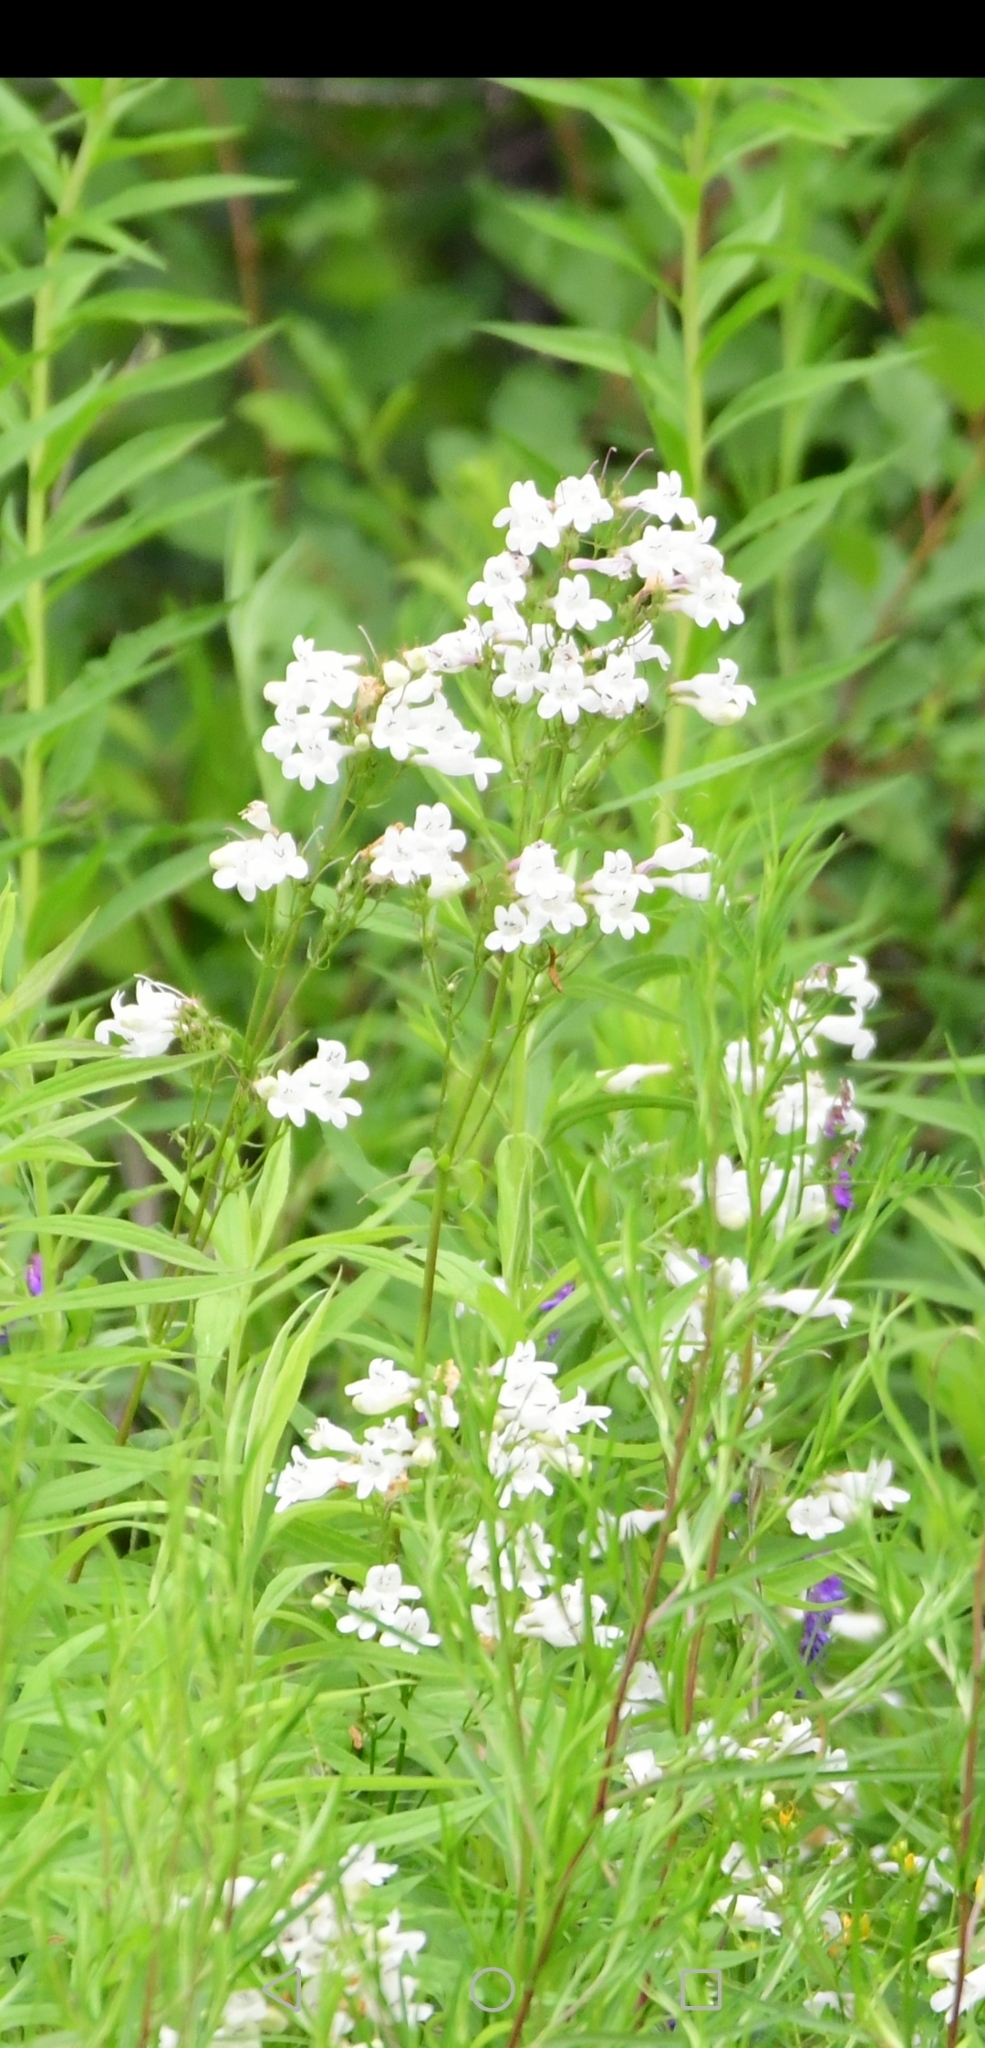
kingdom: Plantae
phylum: Tracheophyta
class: Magnoliopsida
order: Lamiales
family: Plantaginaceae
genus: Penstemon
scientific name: Penstemon digitalis
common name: Foxglove beardtongue
